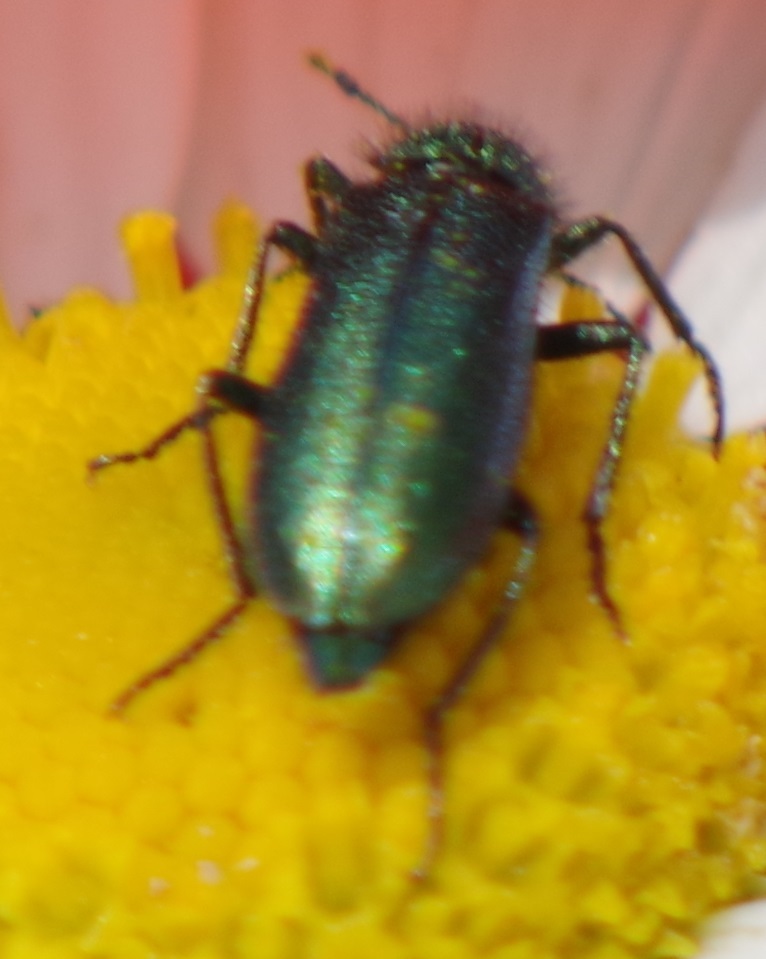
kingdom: Animalia
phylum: Arthropoda
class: Insecta
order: Coleoptera
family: Dasytidae
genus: Psilothrix
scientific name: Psilothrix viridicoerulea
